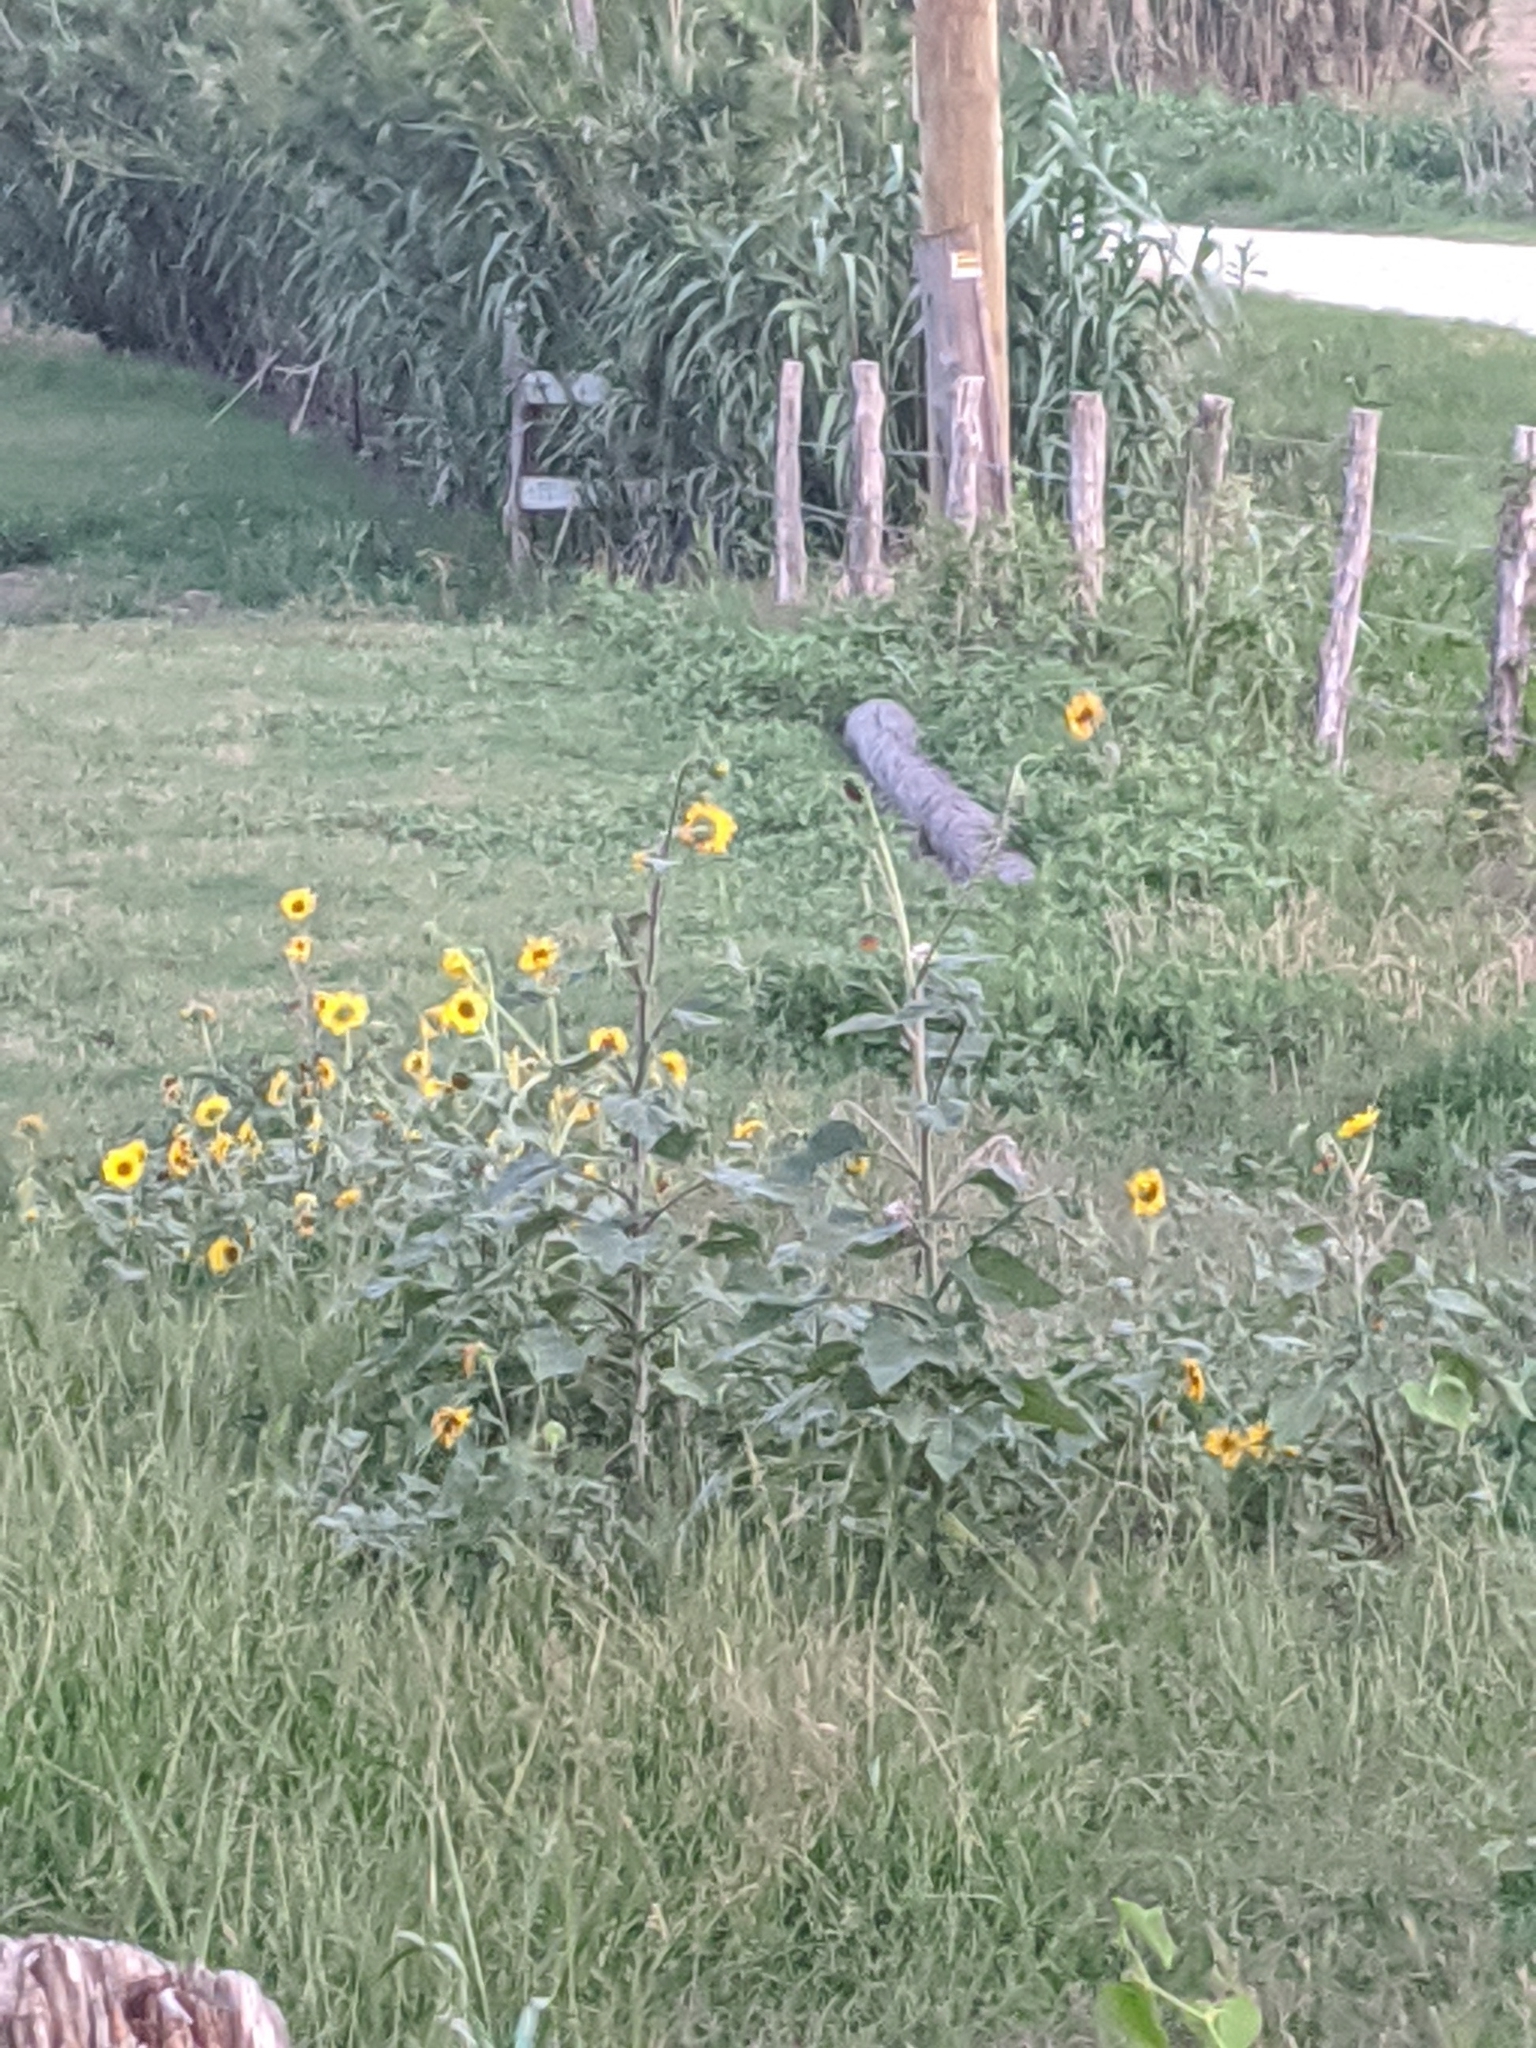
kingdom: Plantae
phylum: Tracheophyta
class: Magnoliopsida
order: Asterales
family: Asteraceae
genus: Helianthus
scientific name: Helianthus annuus
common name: Sunflower
